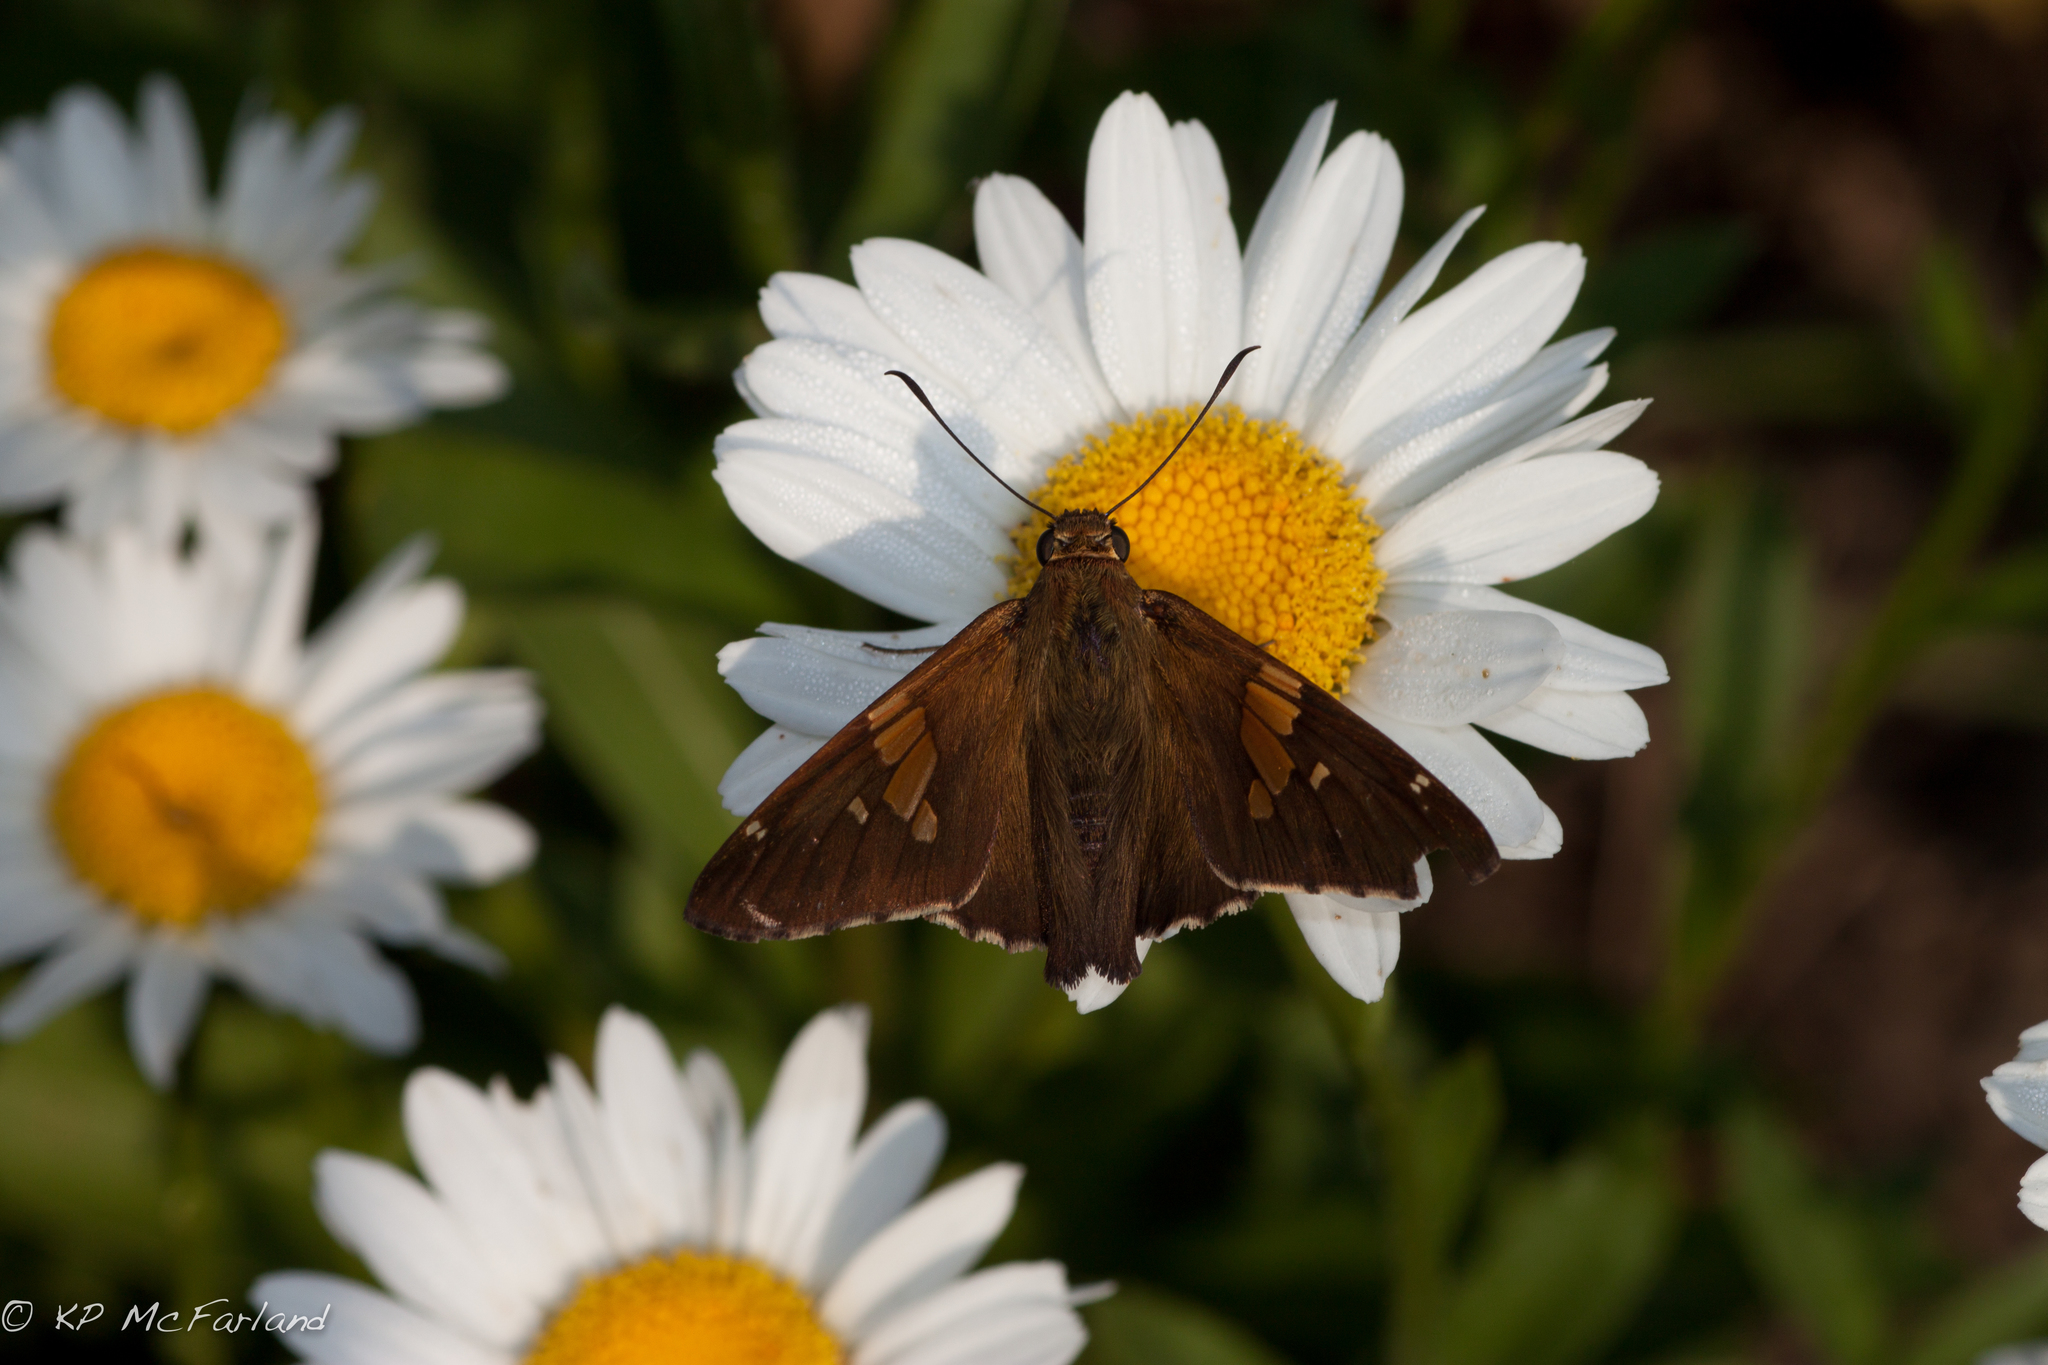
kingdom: Animalia
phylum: Arthropoda
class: Insecta
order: Lepidoptera
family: Hesperiidae
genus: Epargyreus
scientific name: Epargyreus clarus
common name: Silver-spotted skipper
